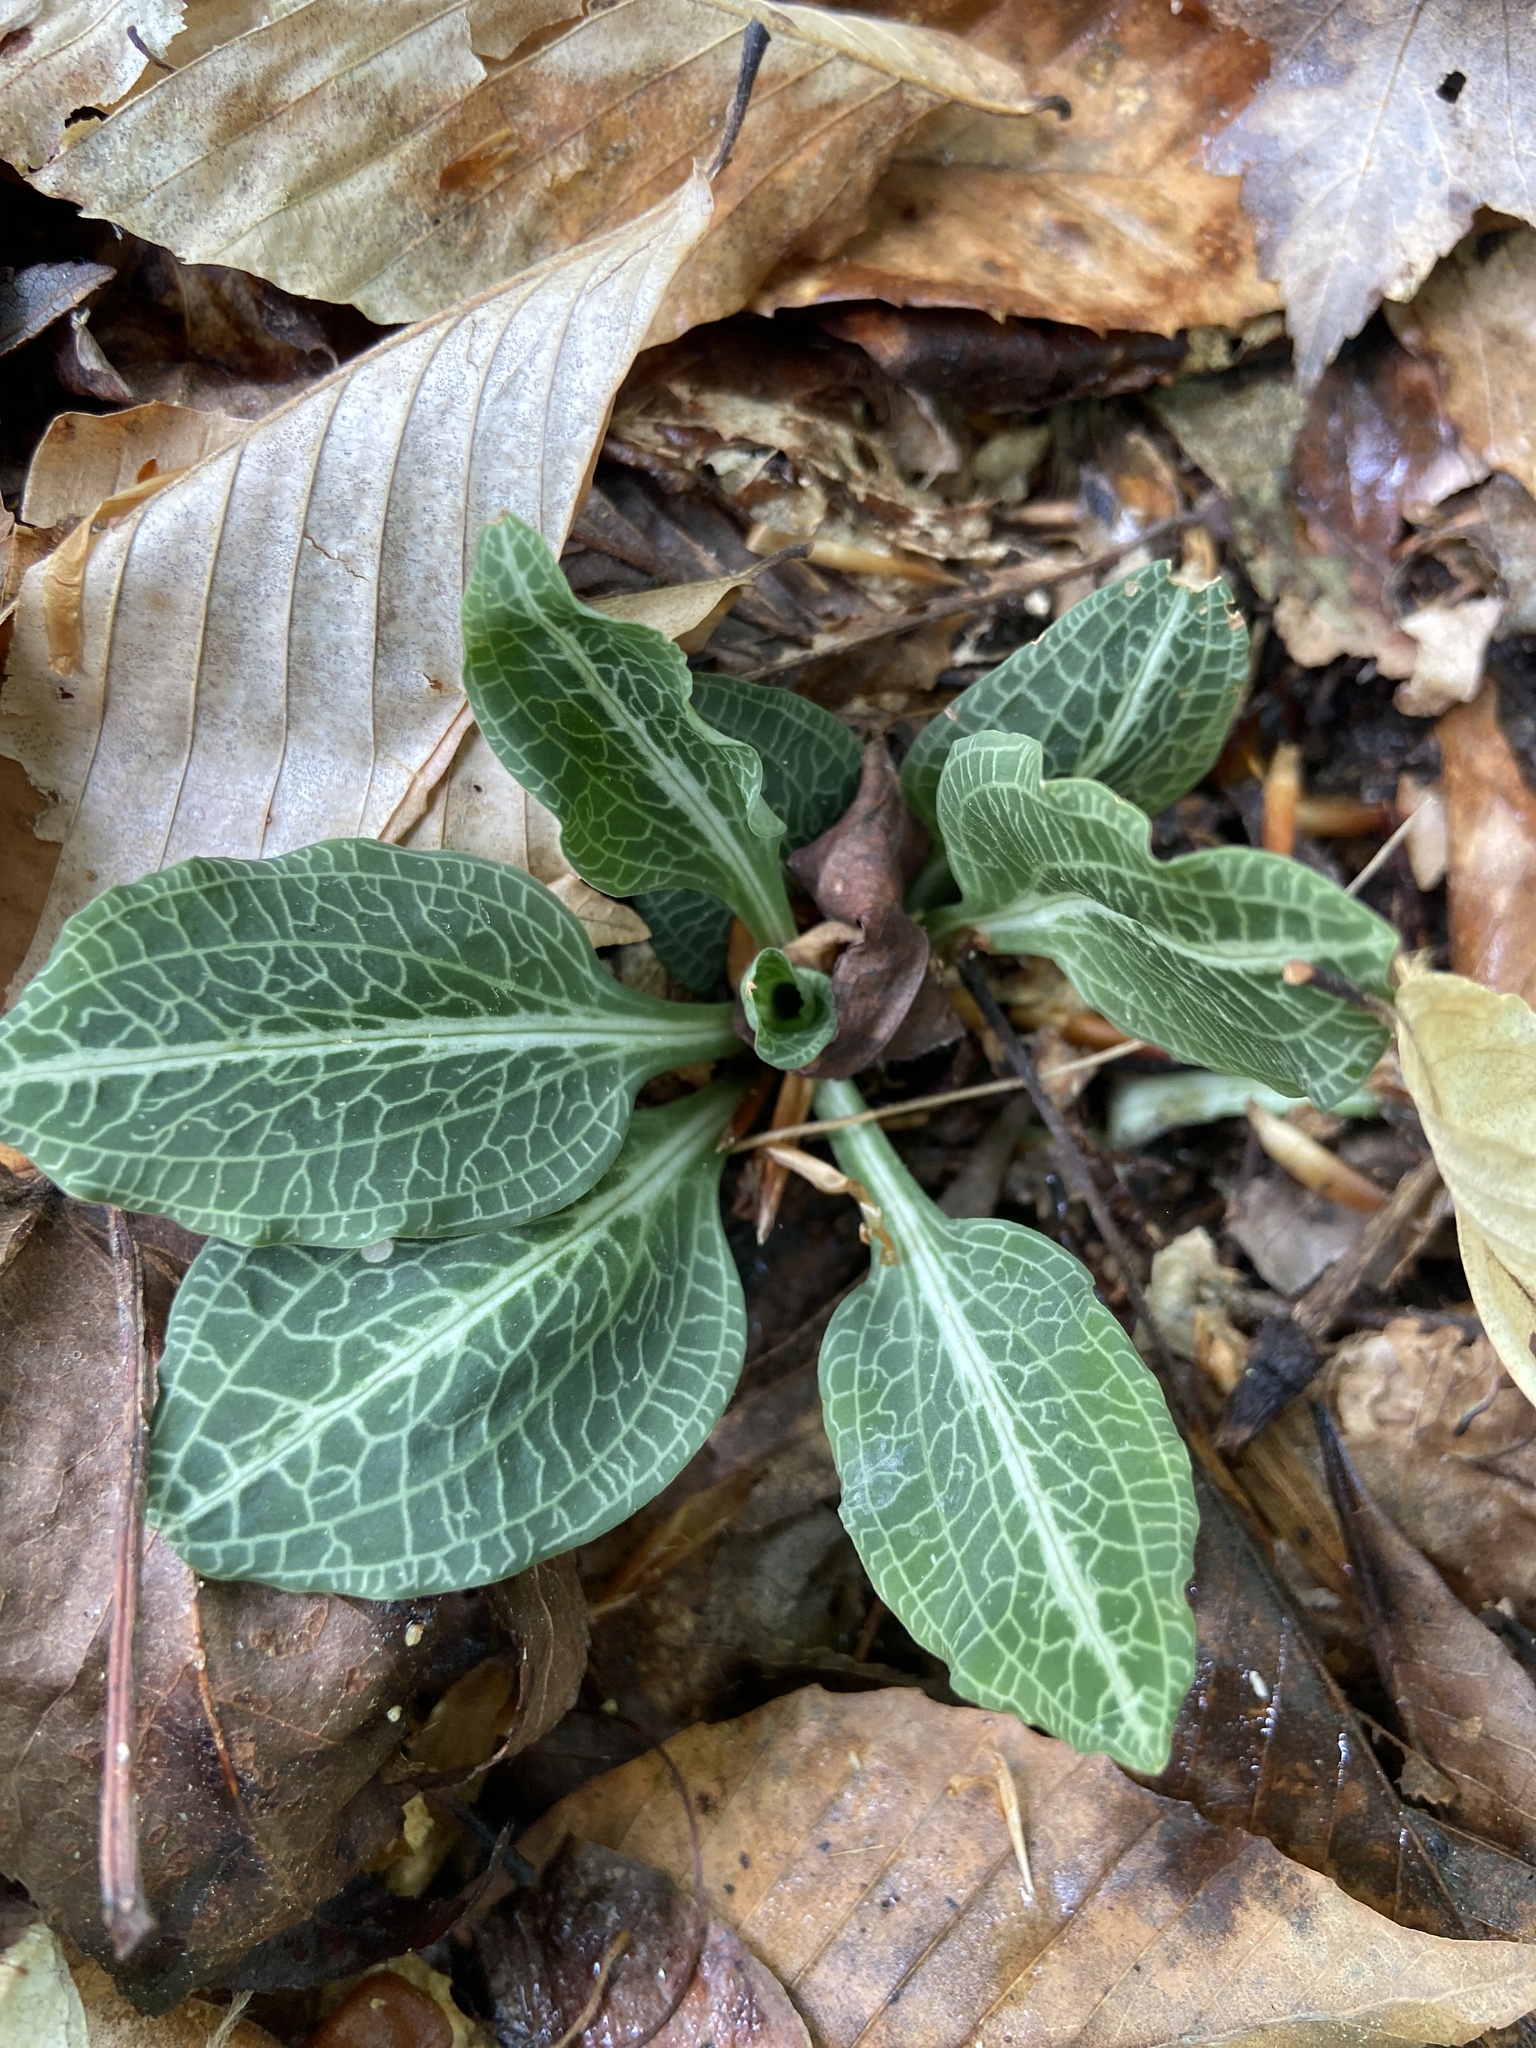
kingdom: Plantae
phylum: Tracheophyta
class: Liliopsida
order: Asparagales
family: Orchidaceae
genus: Goodyera
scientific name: Goodyera pubescens
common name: Downy rattlesnake-plantain
